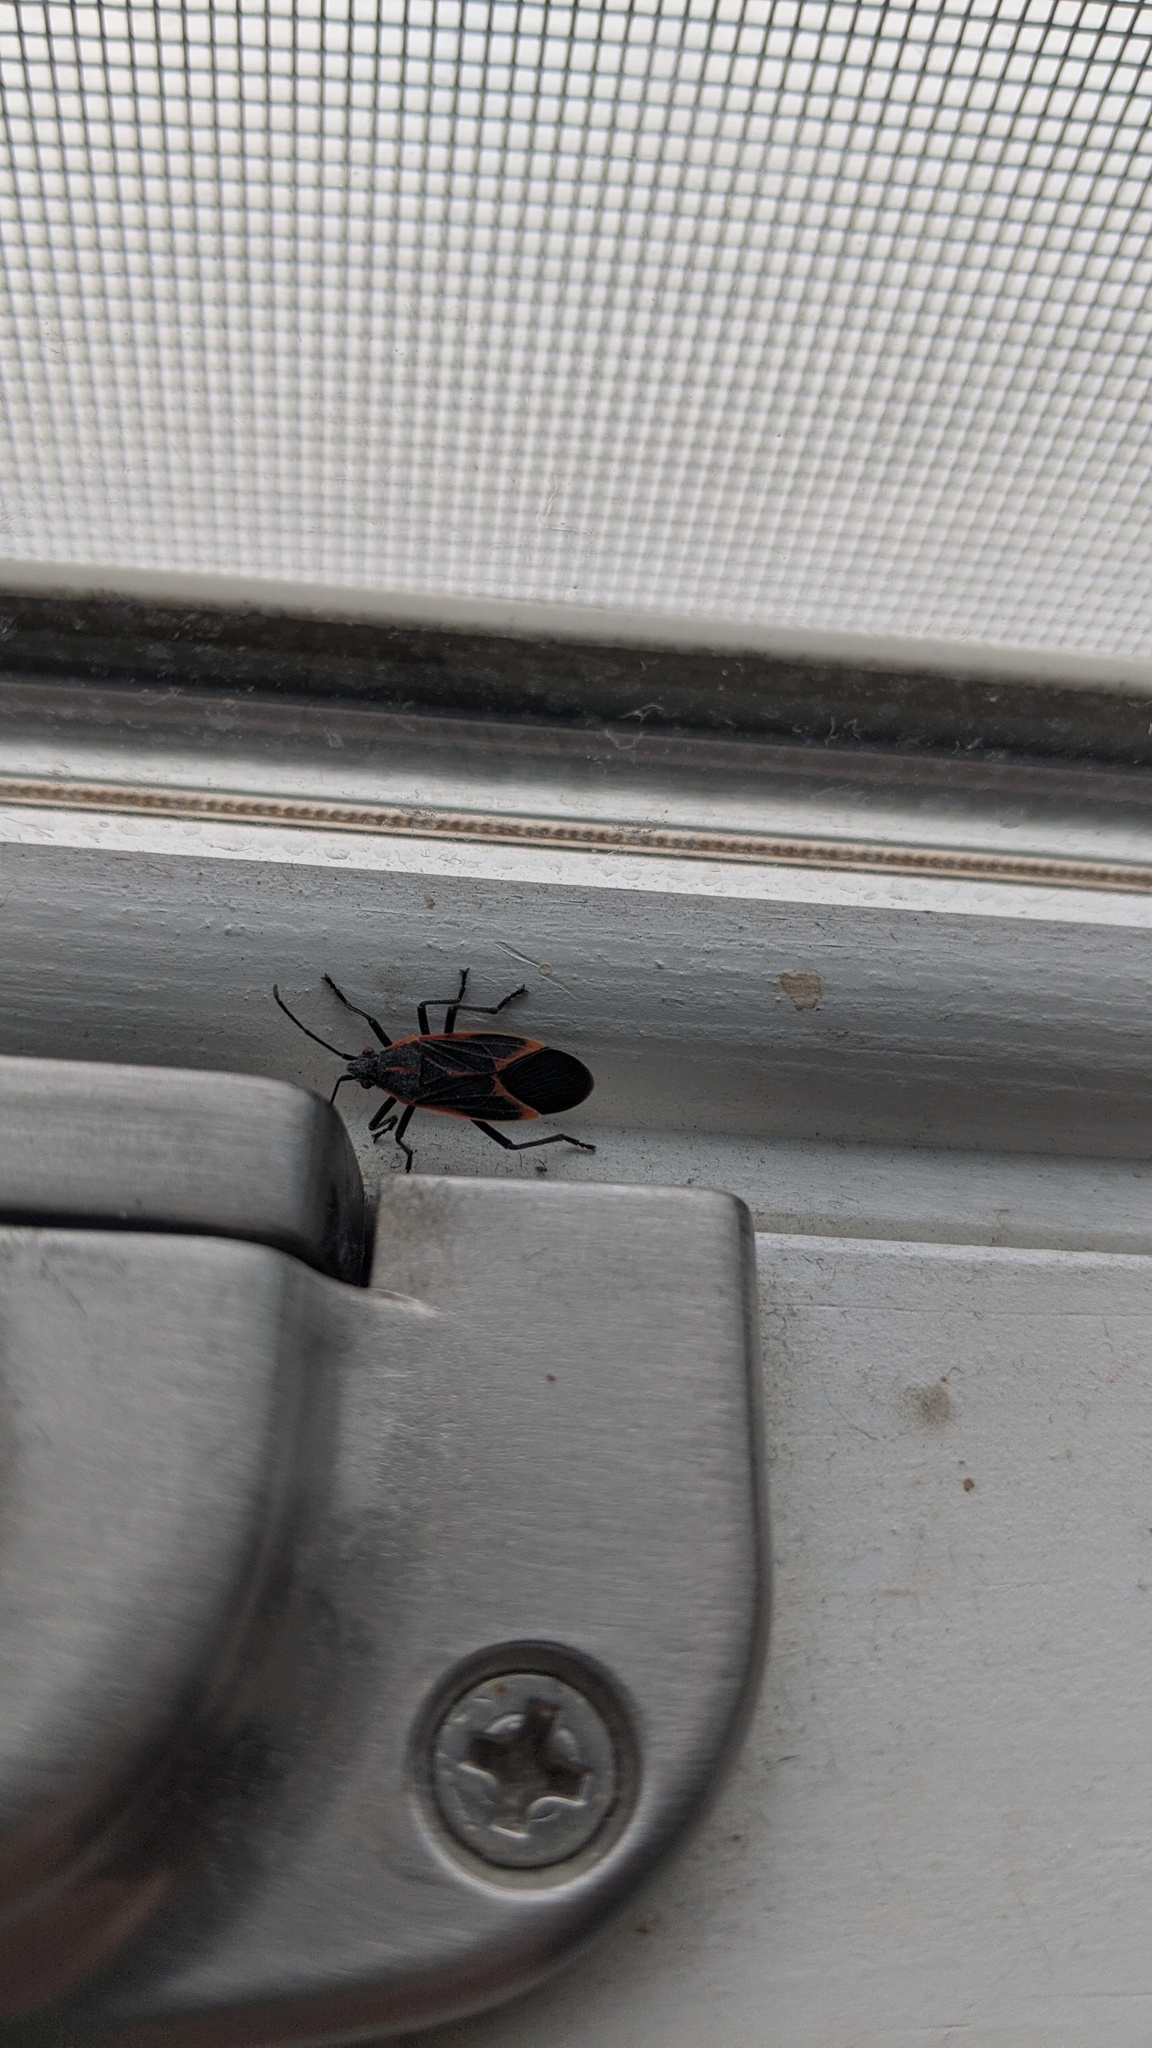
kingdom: Animalia
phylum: Arthropoda
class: Insecta
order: Hemiptera
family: Rhopalidae
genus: Boisea
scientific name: Boisea trivittata
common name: Boxelder bug
